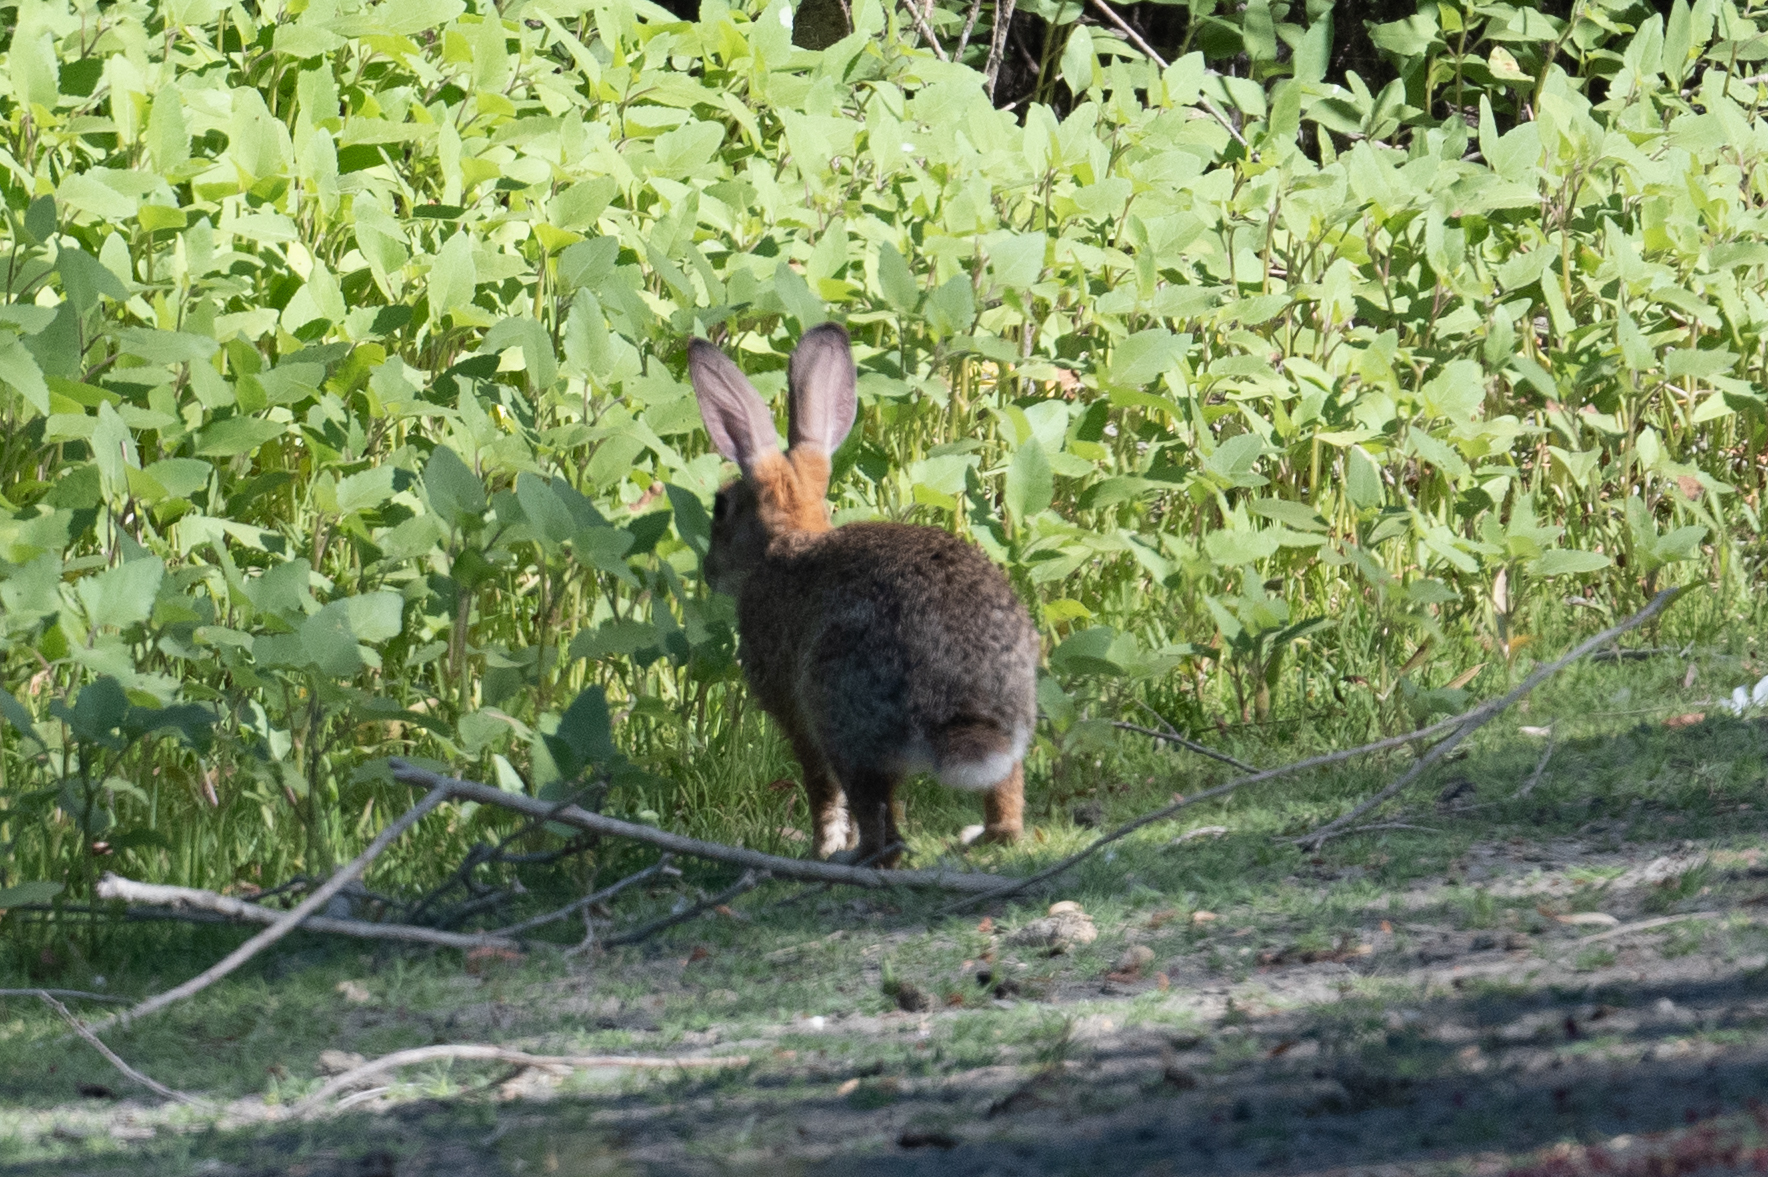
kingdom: Animalia
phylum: Chordata
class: Mammalia
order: Lagomorpha
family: Leporidae
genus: Sylvilagus
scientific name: Sylvilagus audubonii
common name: Desert cottontail
